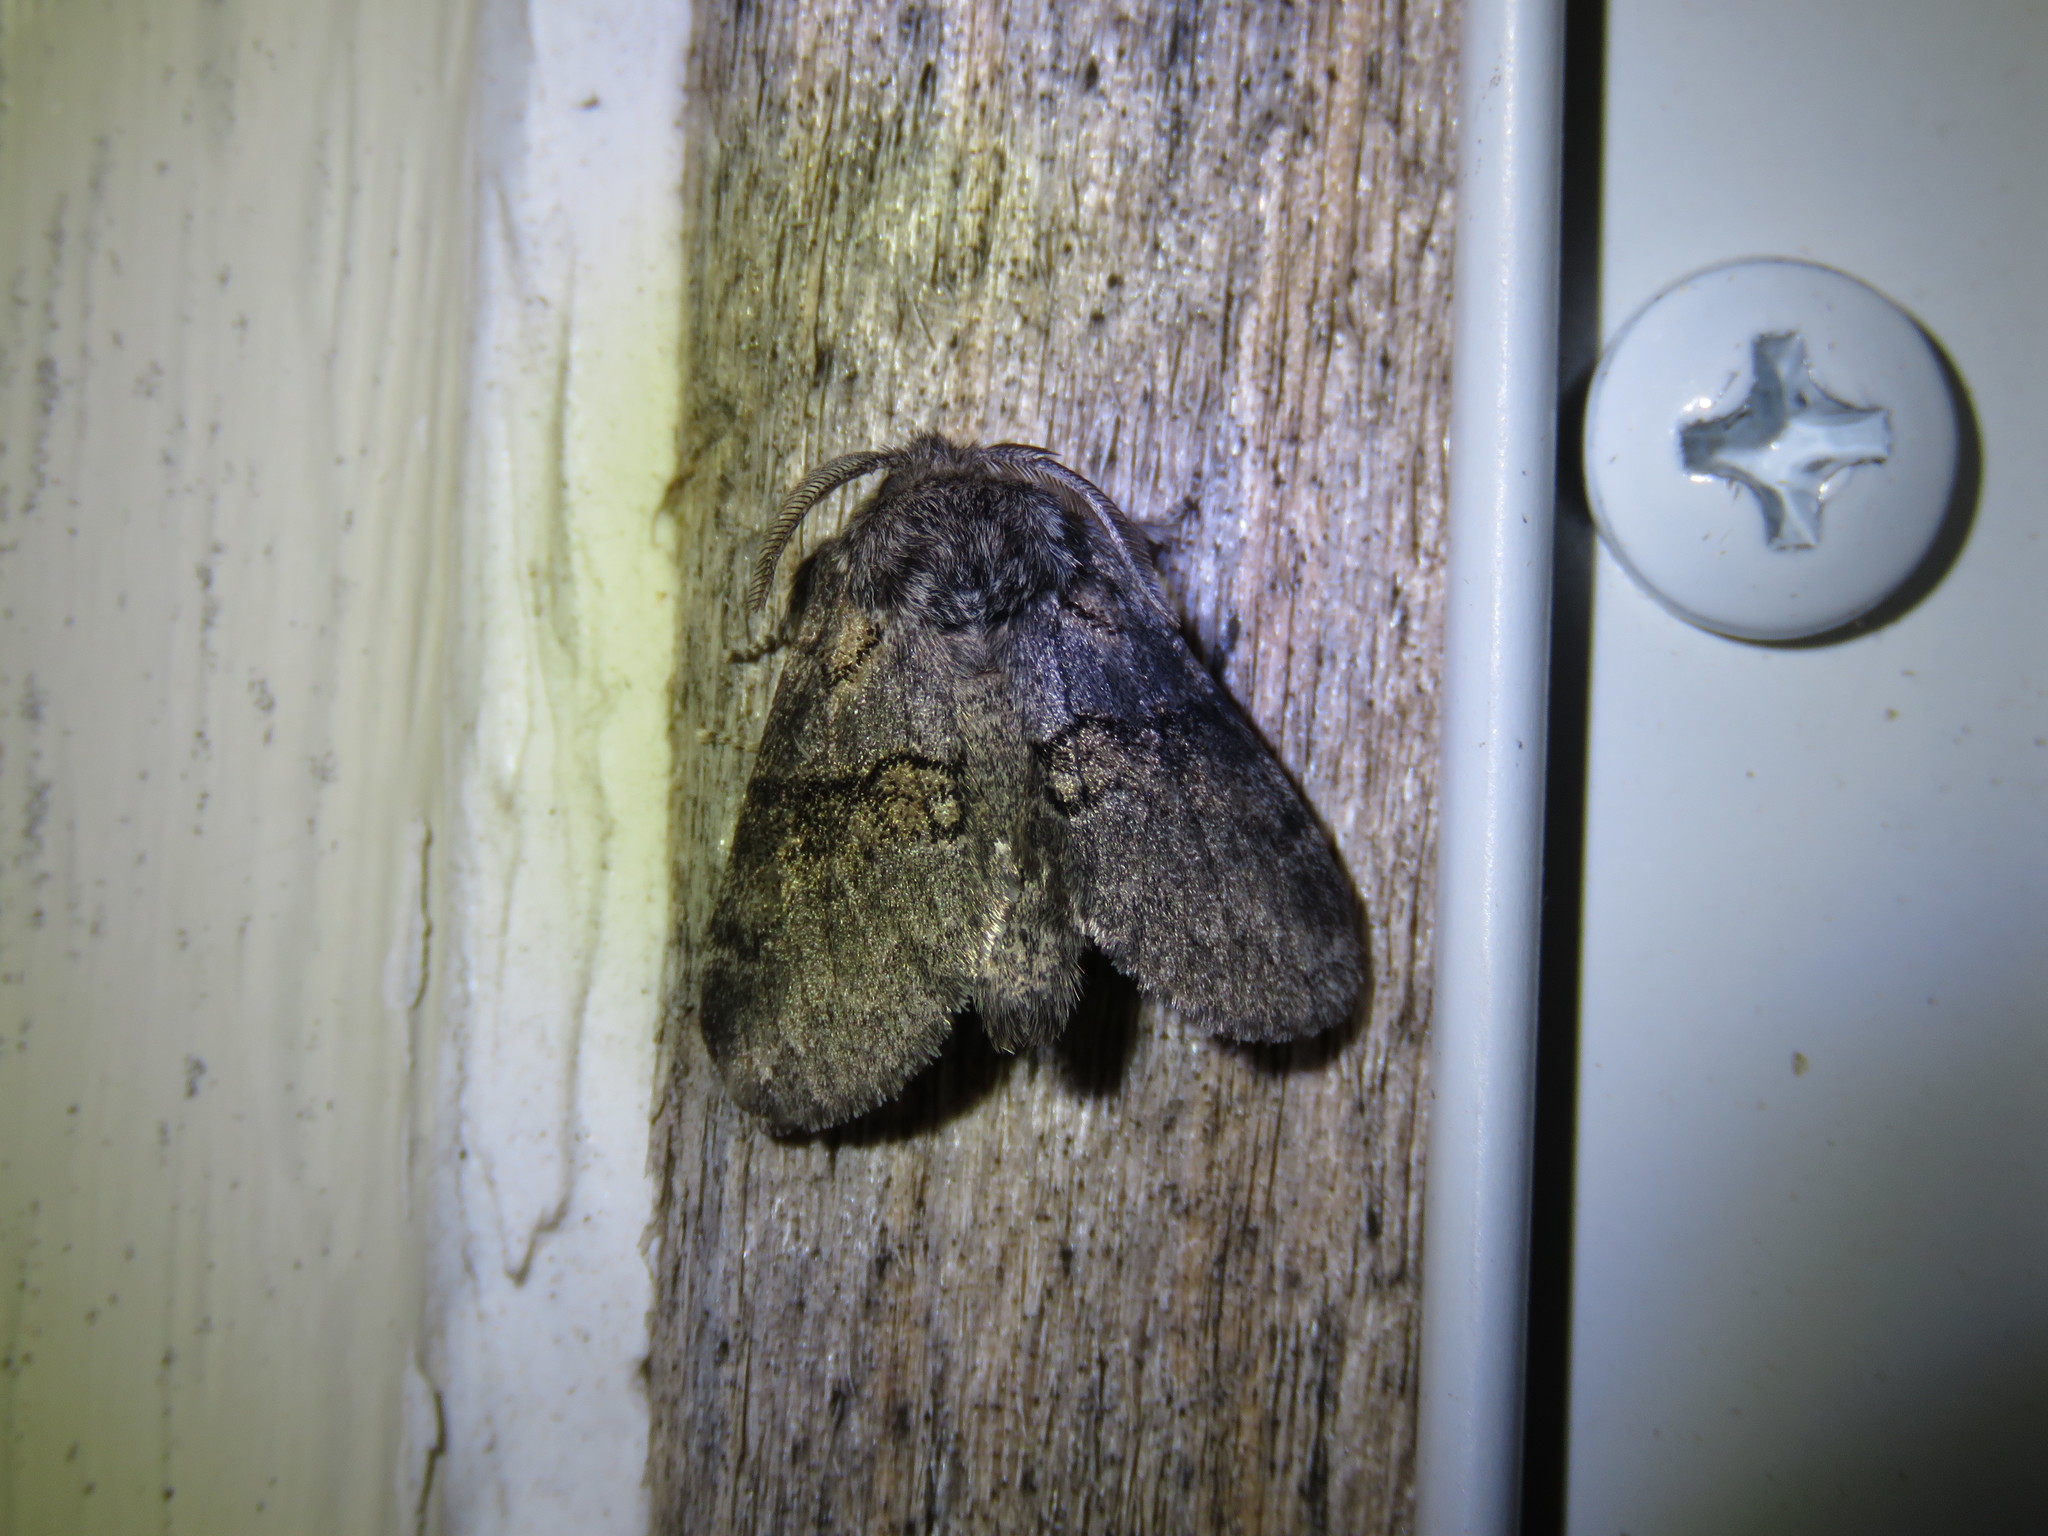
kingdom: Animalia
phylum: Arthropoda
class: Insecta
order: Lepidoptera
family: Notodontidae
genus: Gluphisia
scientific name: Gluphisia septentrionis
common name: Common gluphisia
